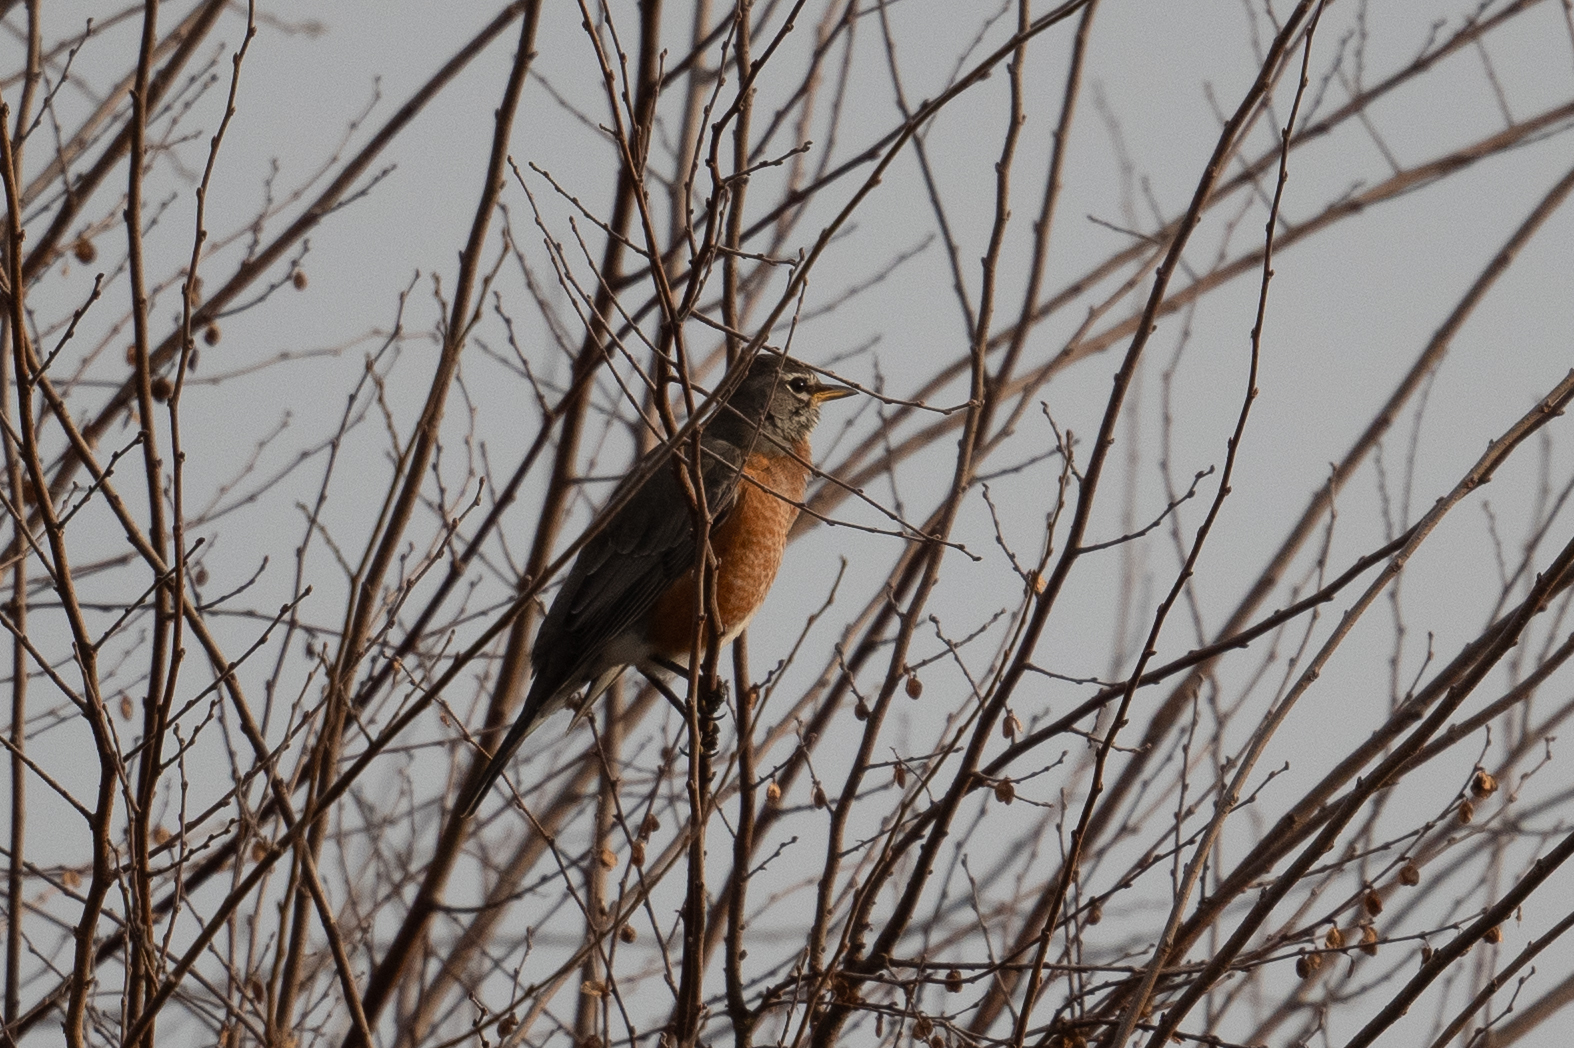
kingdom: Animalia
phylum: Chordata
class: Aves
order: Passeriformes
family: Turdidae
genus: Turdus
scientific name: Turdus migratorius
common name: American robin
